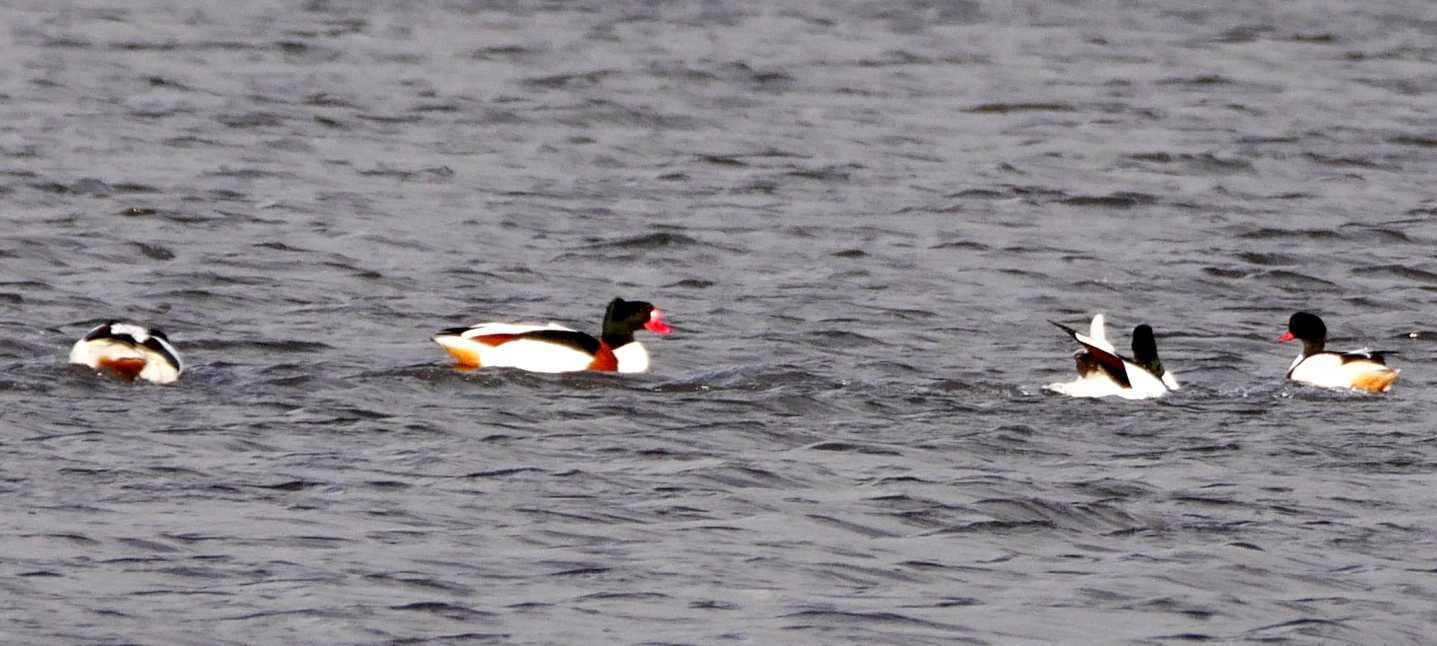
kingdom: Animalia
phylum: Chordata
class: Aves
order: Anseriformes
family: Anatidae
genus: Tadorna
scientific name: Tadorna tadorna
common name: Common shelduck
